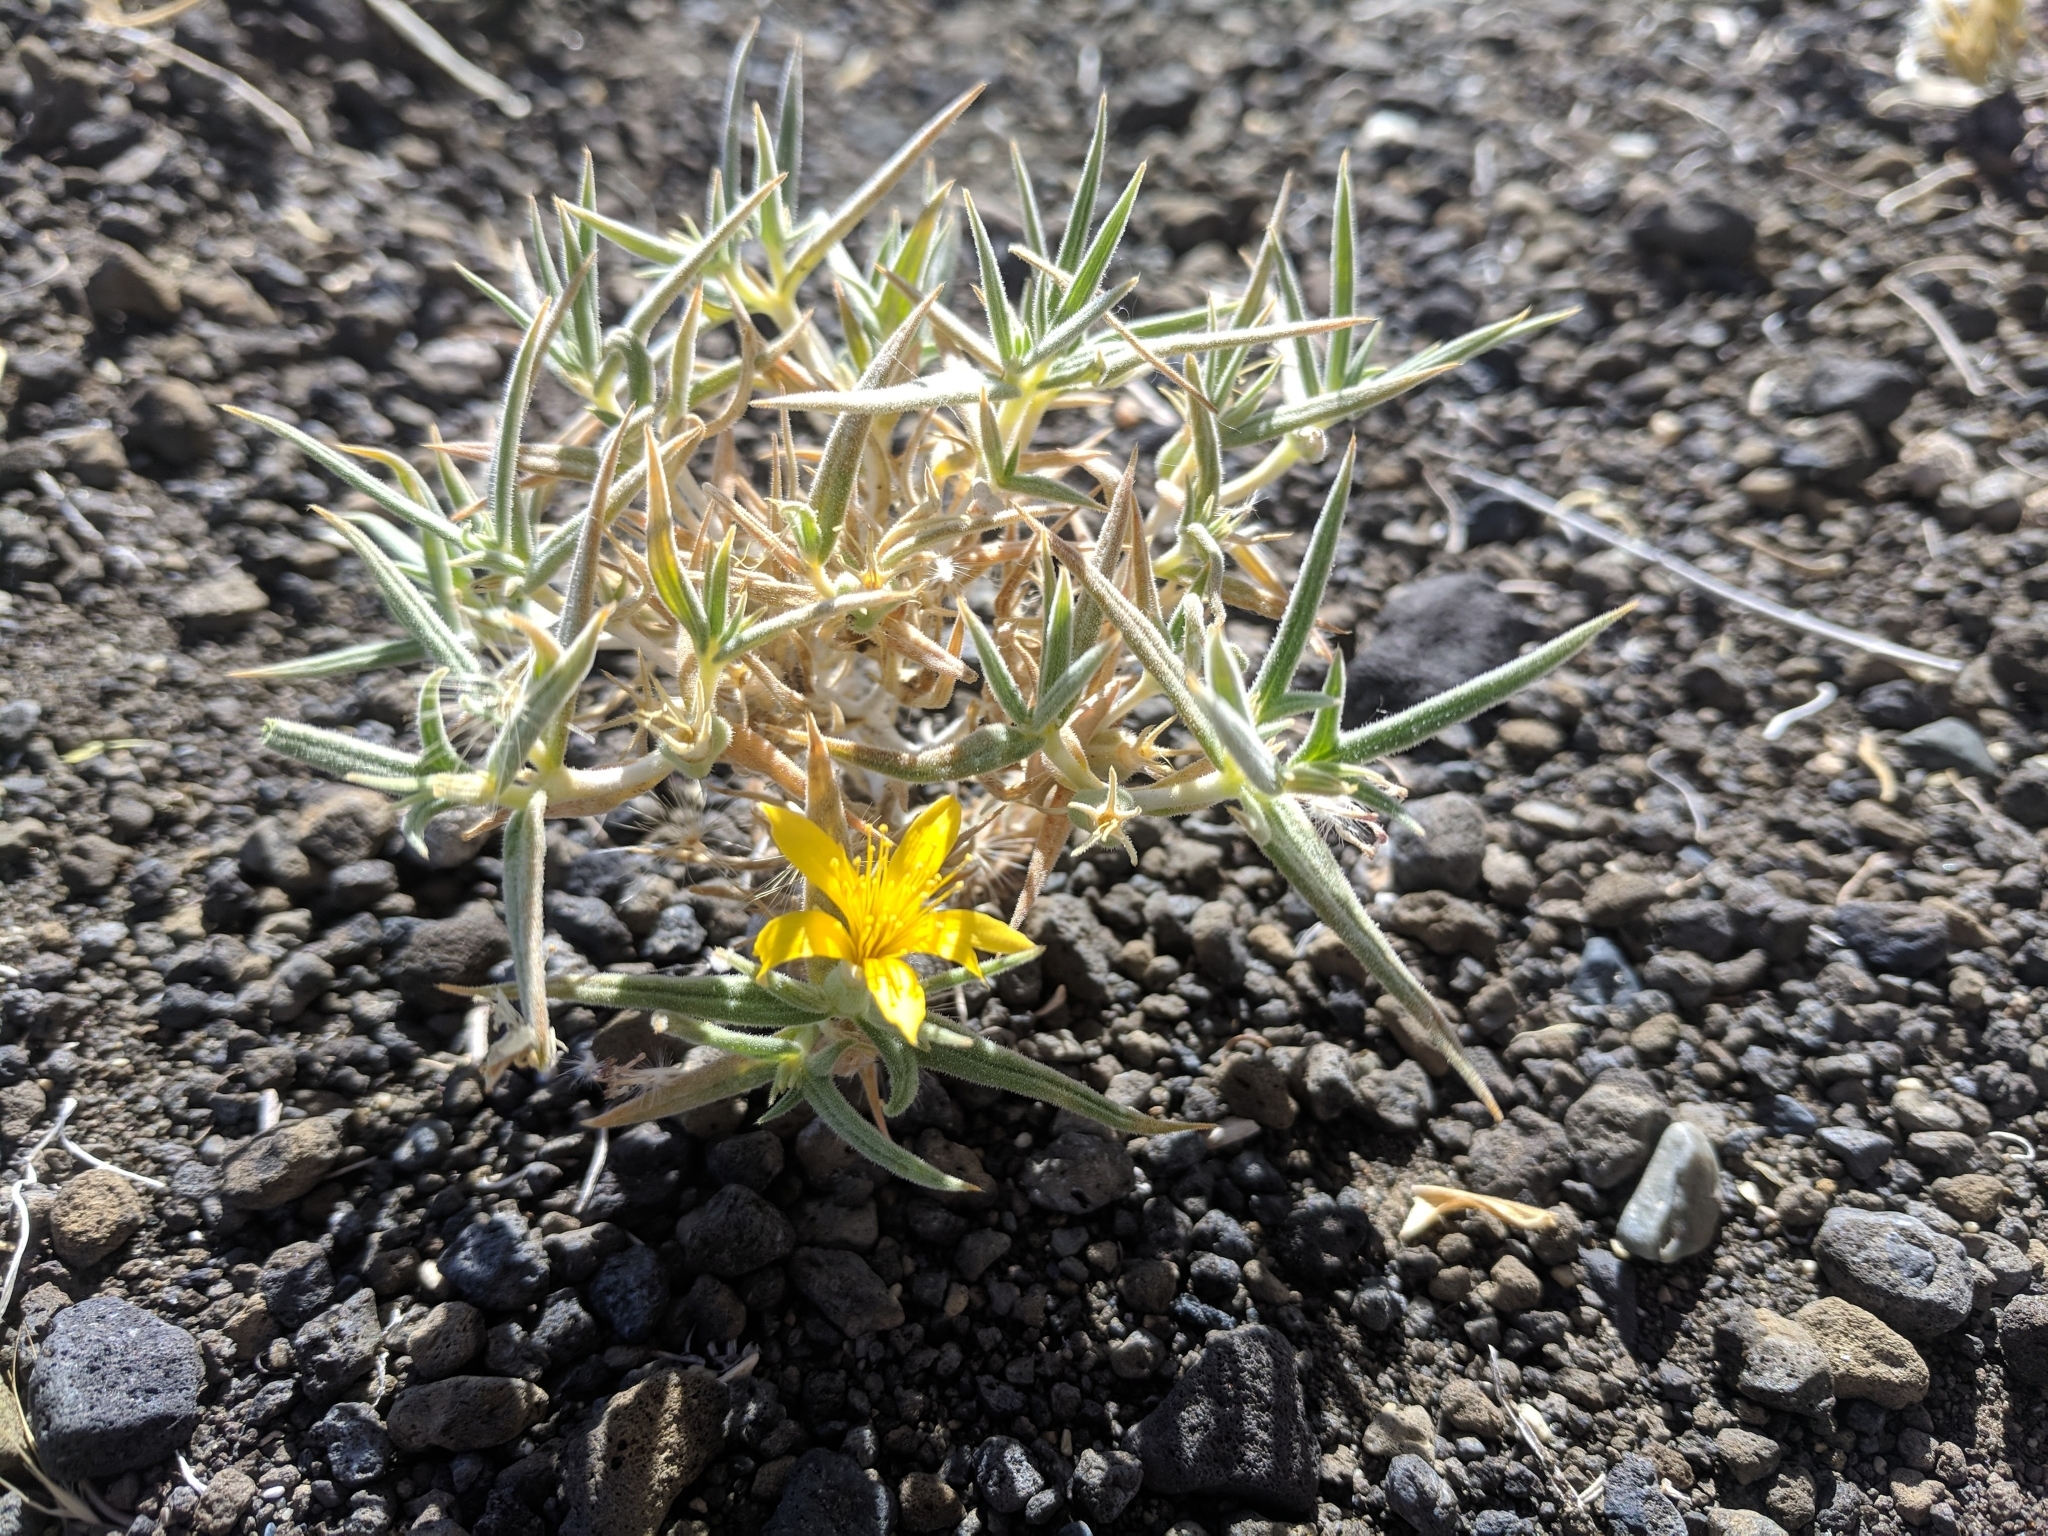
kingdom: Plantae
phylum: Tracheophyta
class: Magnoliopsida
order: Cornales
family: Loasaceae
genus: Mentzelia
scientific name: Mentzelia torreyi
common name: Torrey's blazingstar
